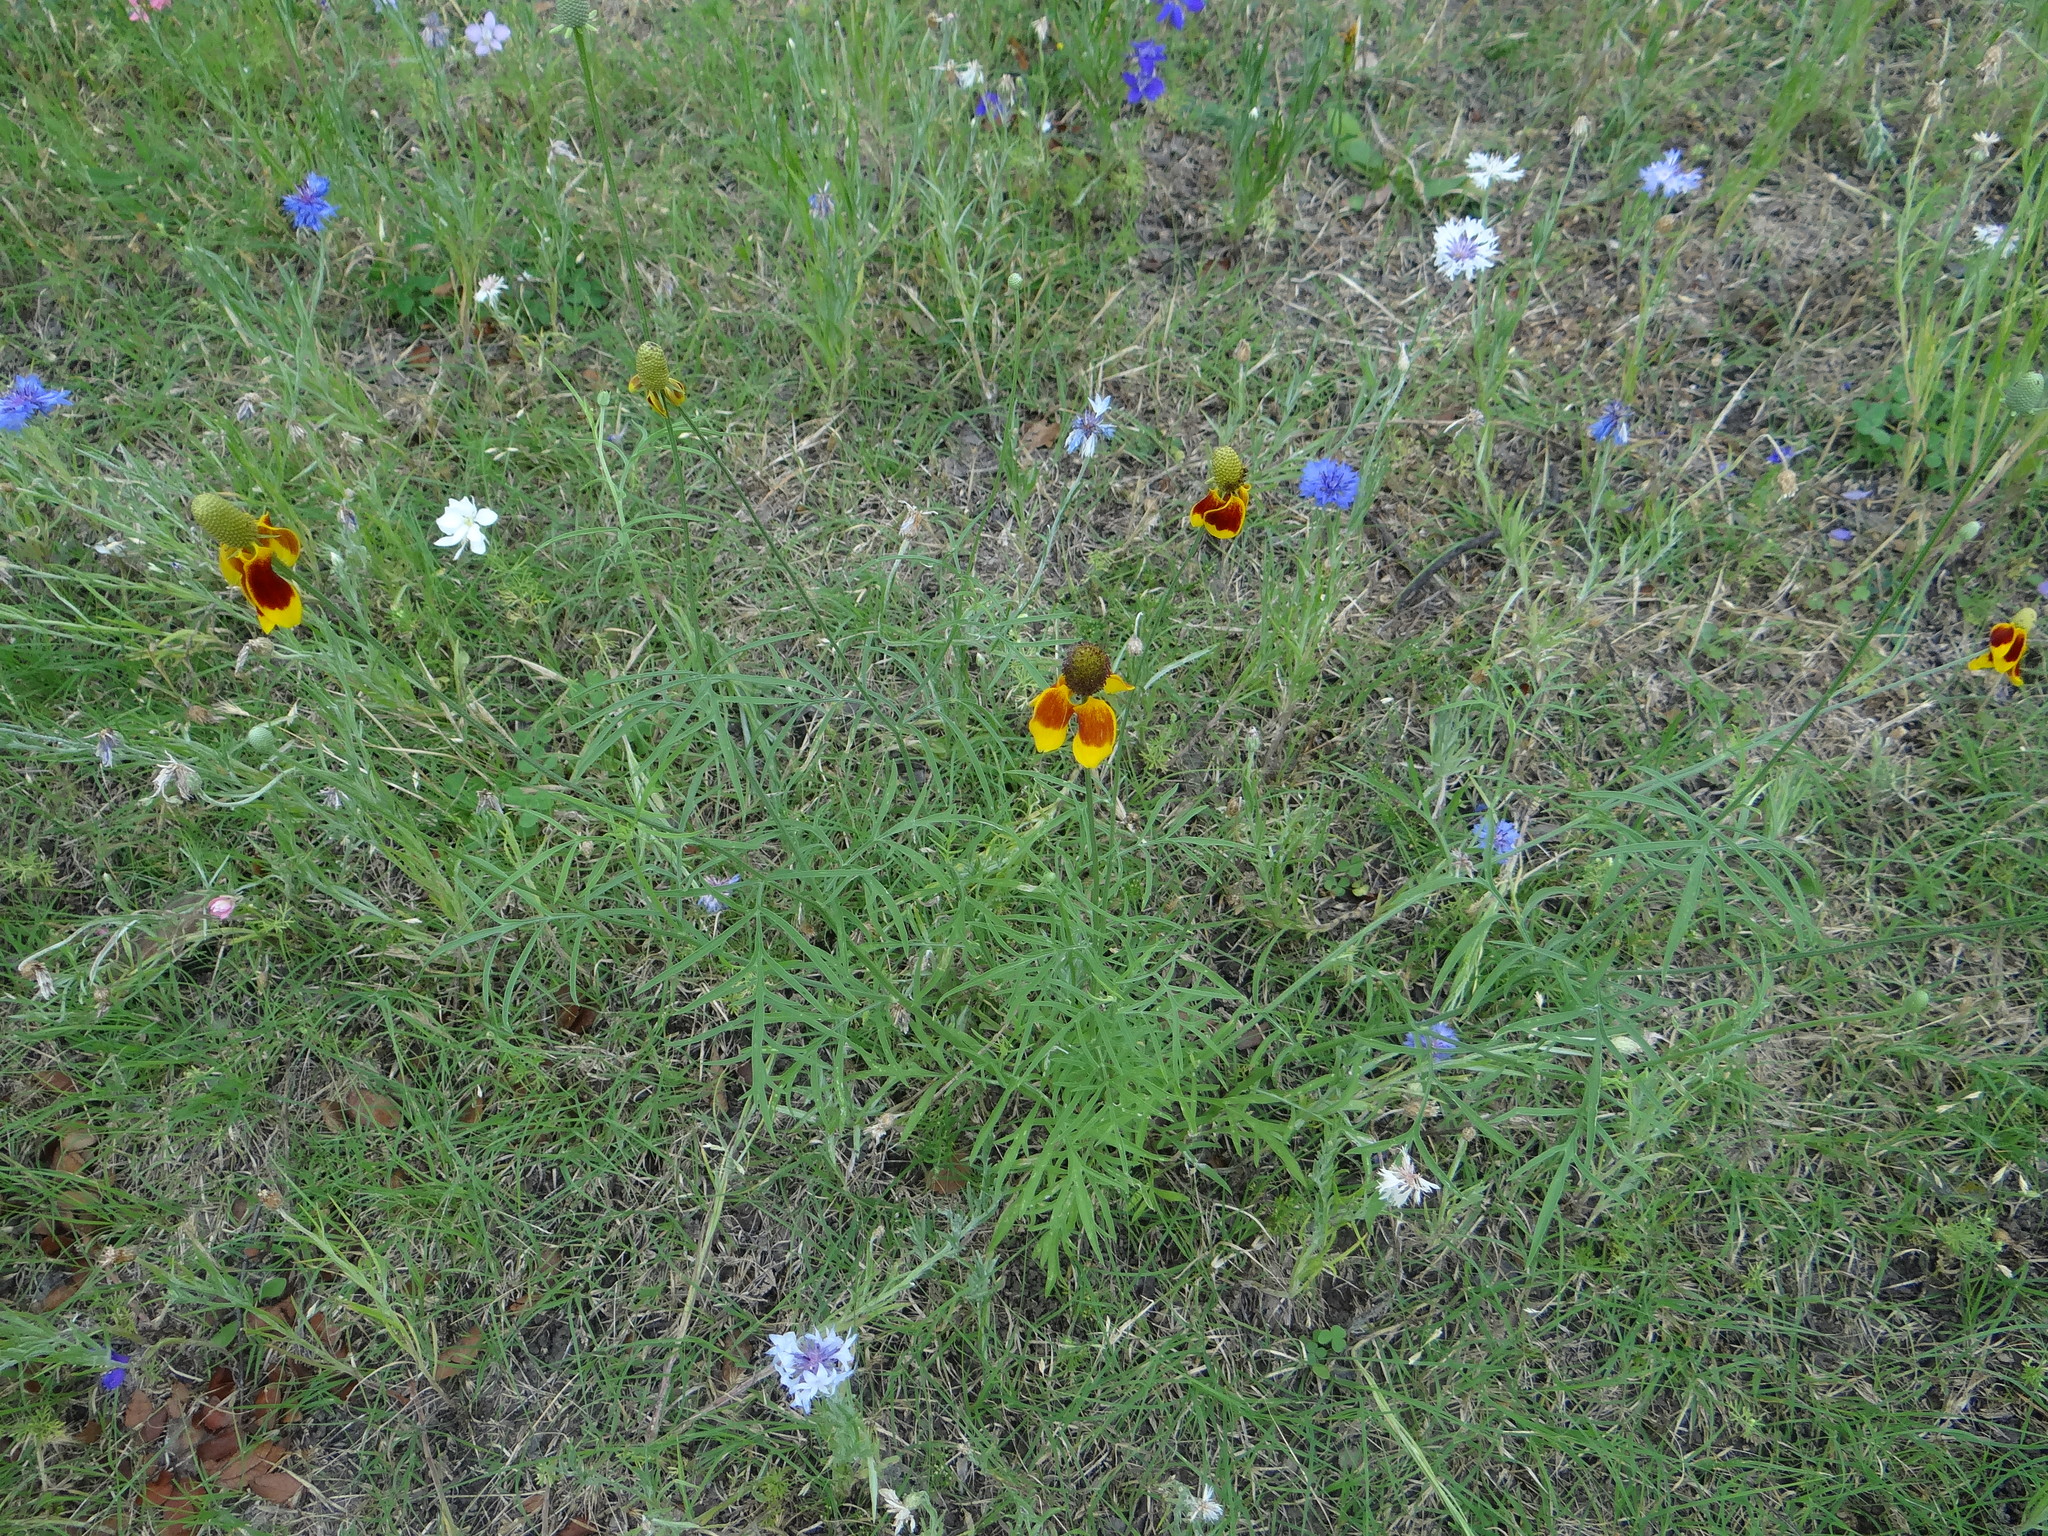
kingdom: Plantae
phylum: Tracheophyta
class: Magnoliopsida
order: Asterales
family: Asteraceae
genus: Ratibida
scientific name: Ratibida columnifera
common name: Prairie coneflower
